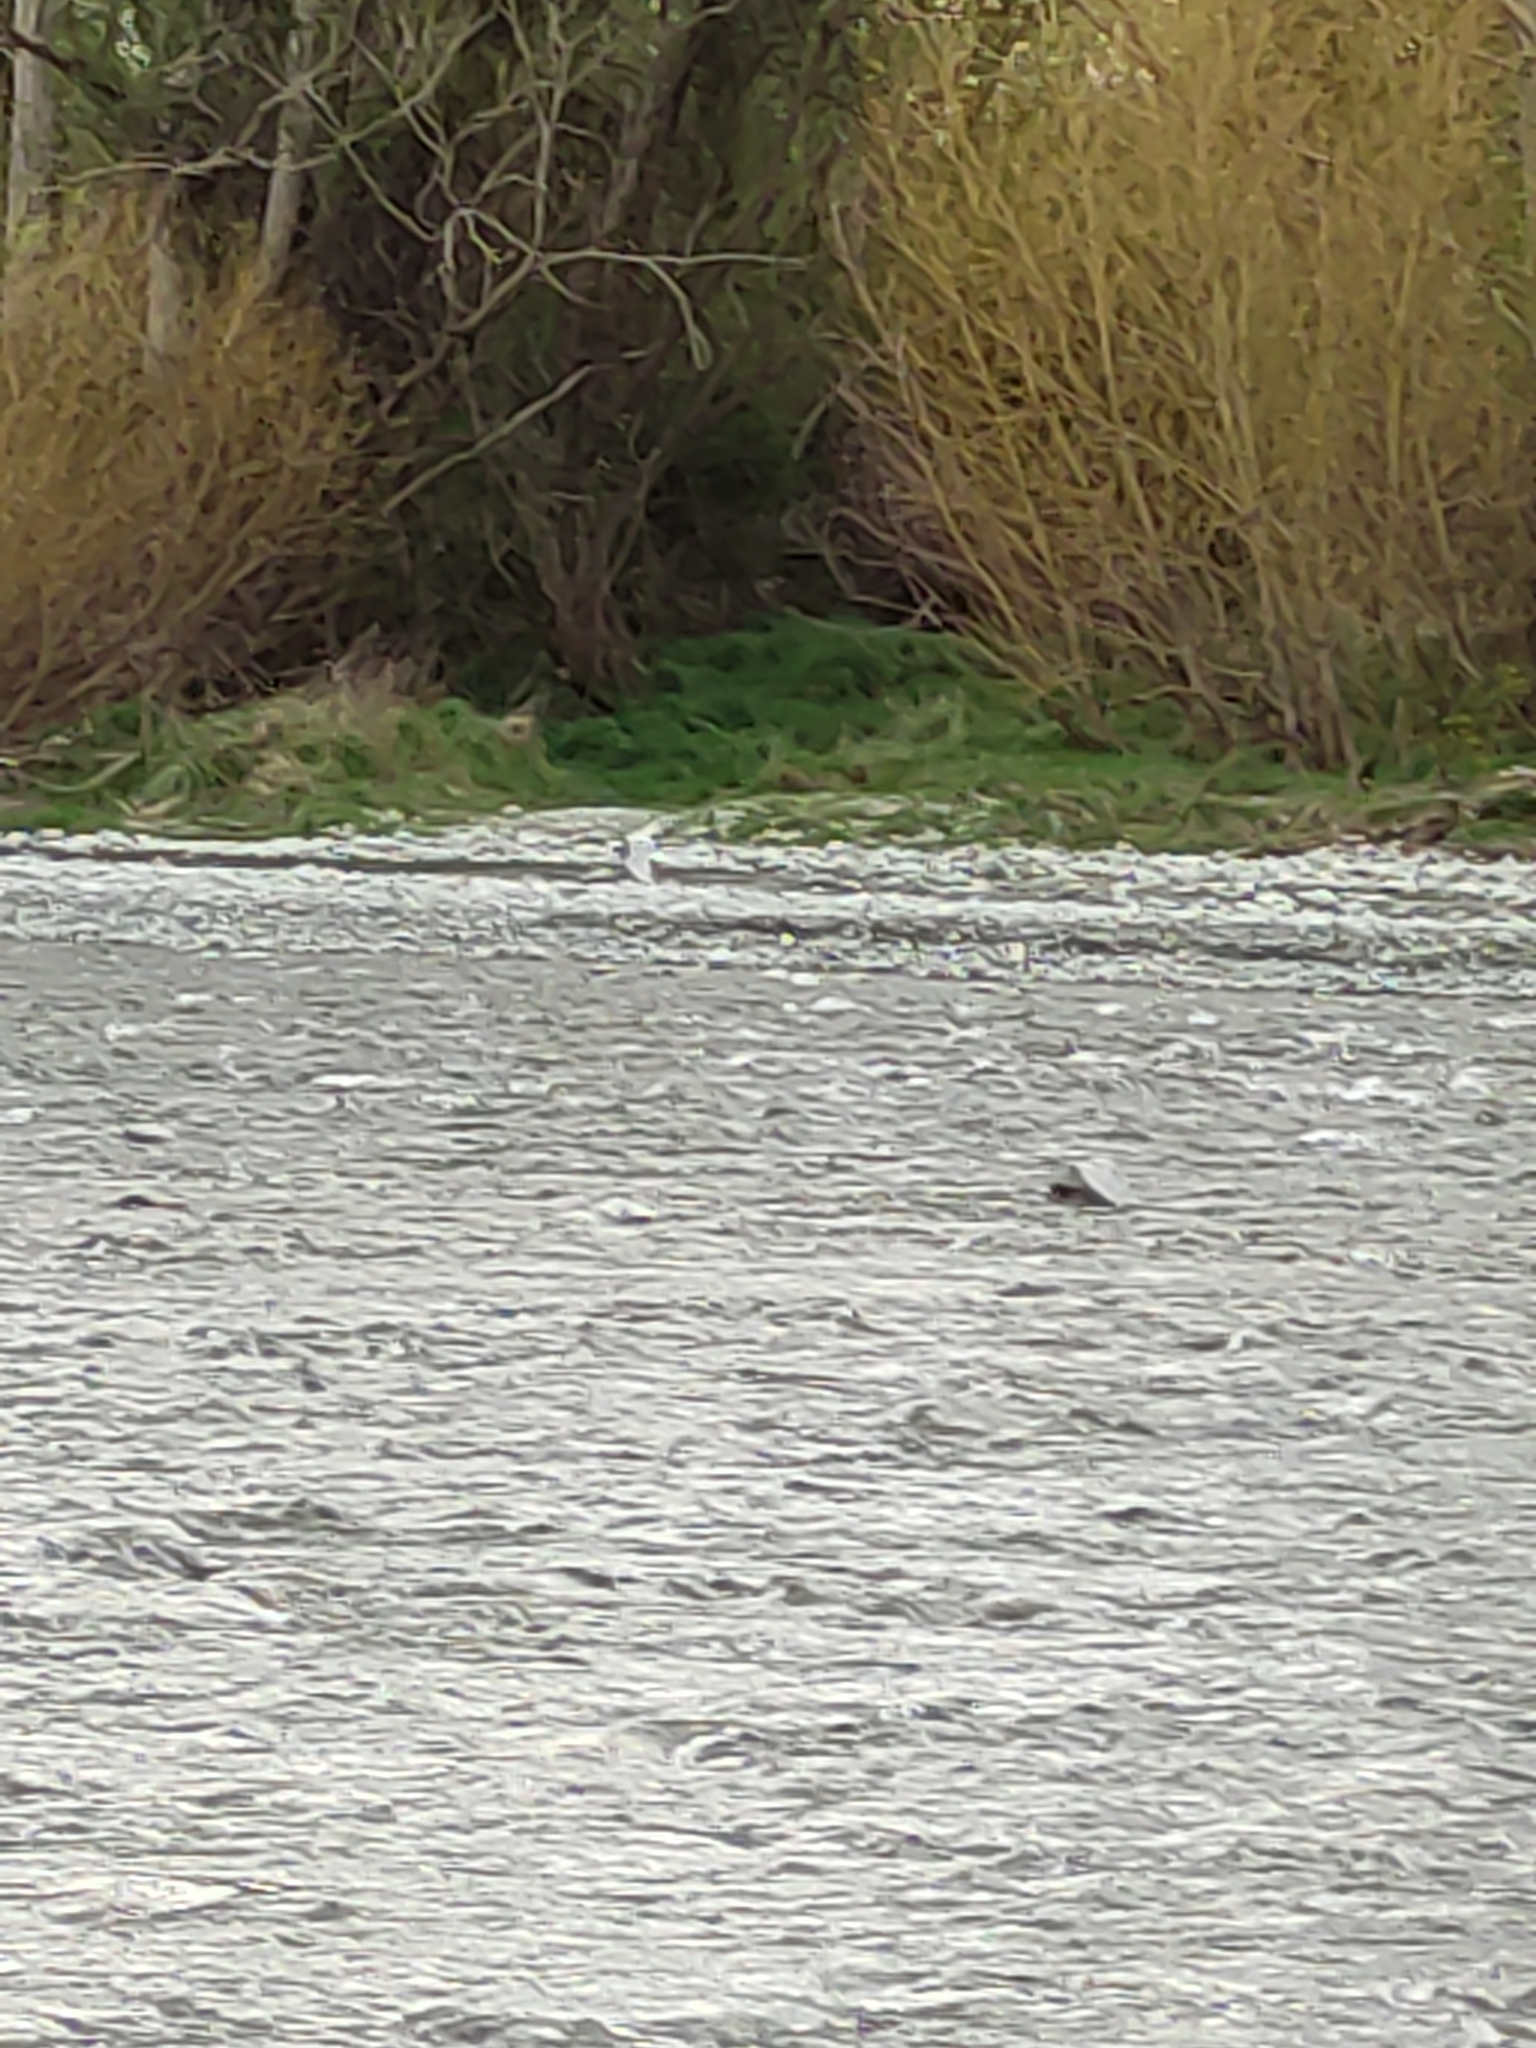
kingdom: Animalia
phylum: Chordata
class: Aves
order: Charadriiformes
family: Laridae
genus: Chlidonias
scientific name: Chlidonias albostriatus
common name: Black-fronted tern
